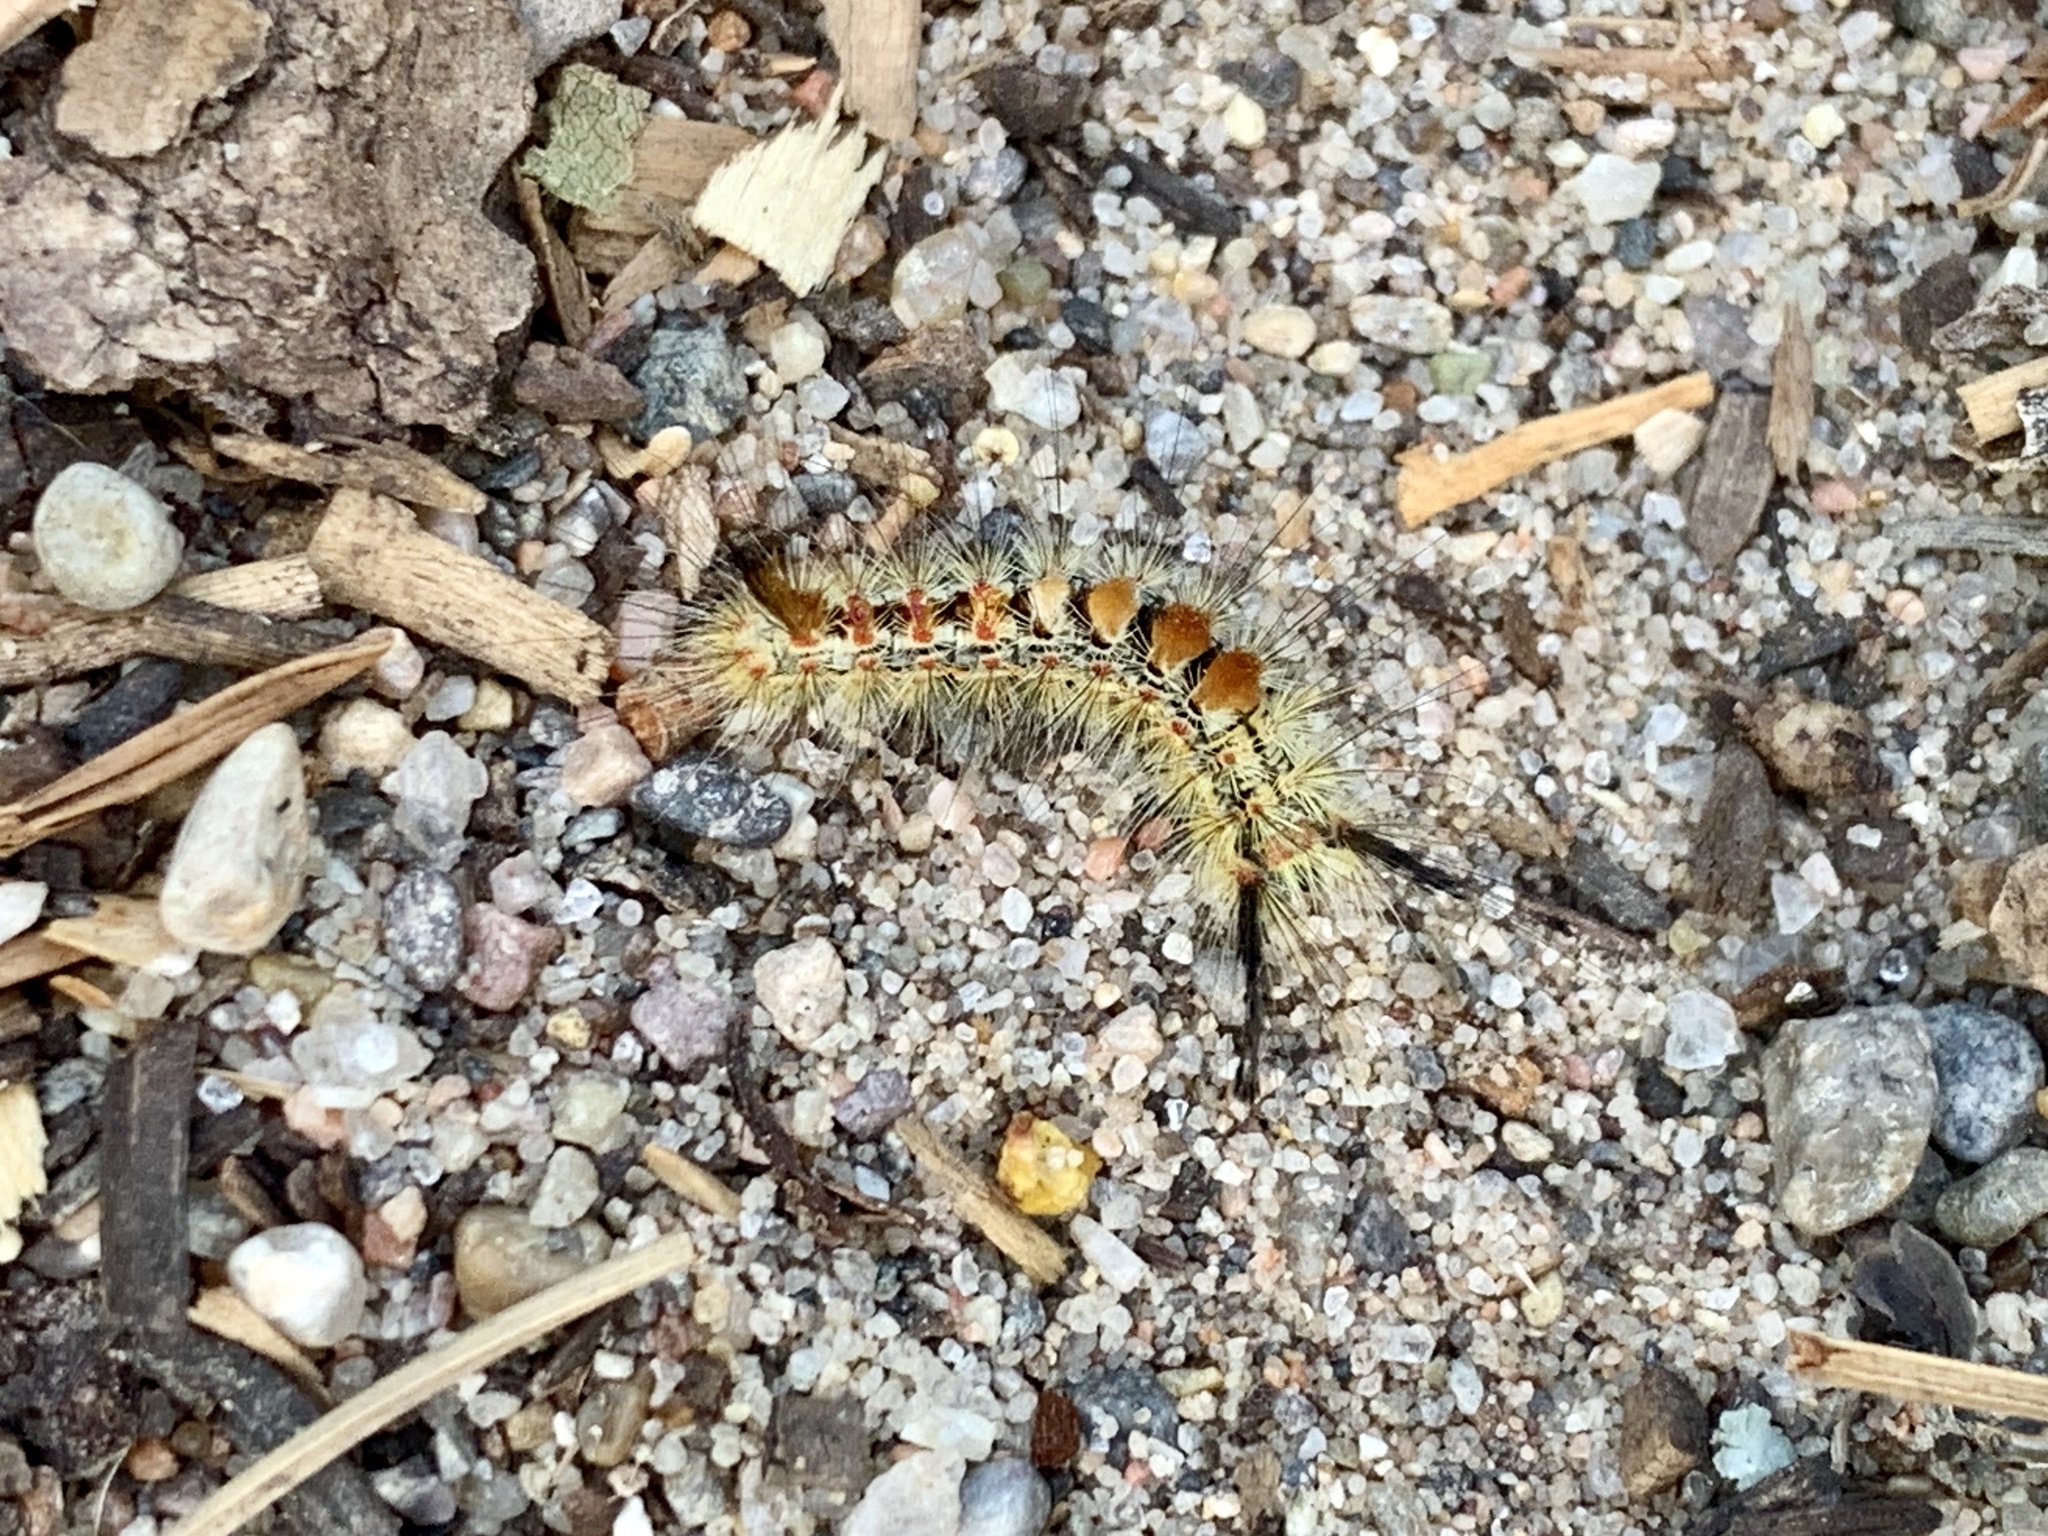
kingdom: Animalia
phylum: Arthropoda
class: Insecta
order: Lepidoptera
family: Erebidae
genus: Orgyia
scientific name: Orgyia pseudotsugata
